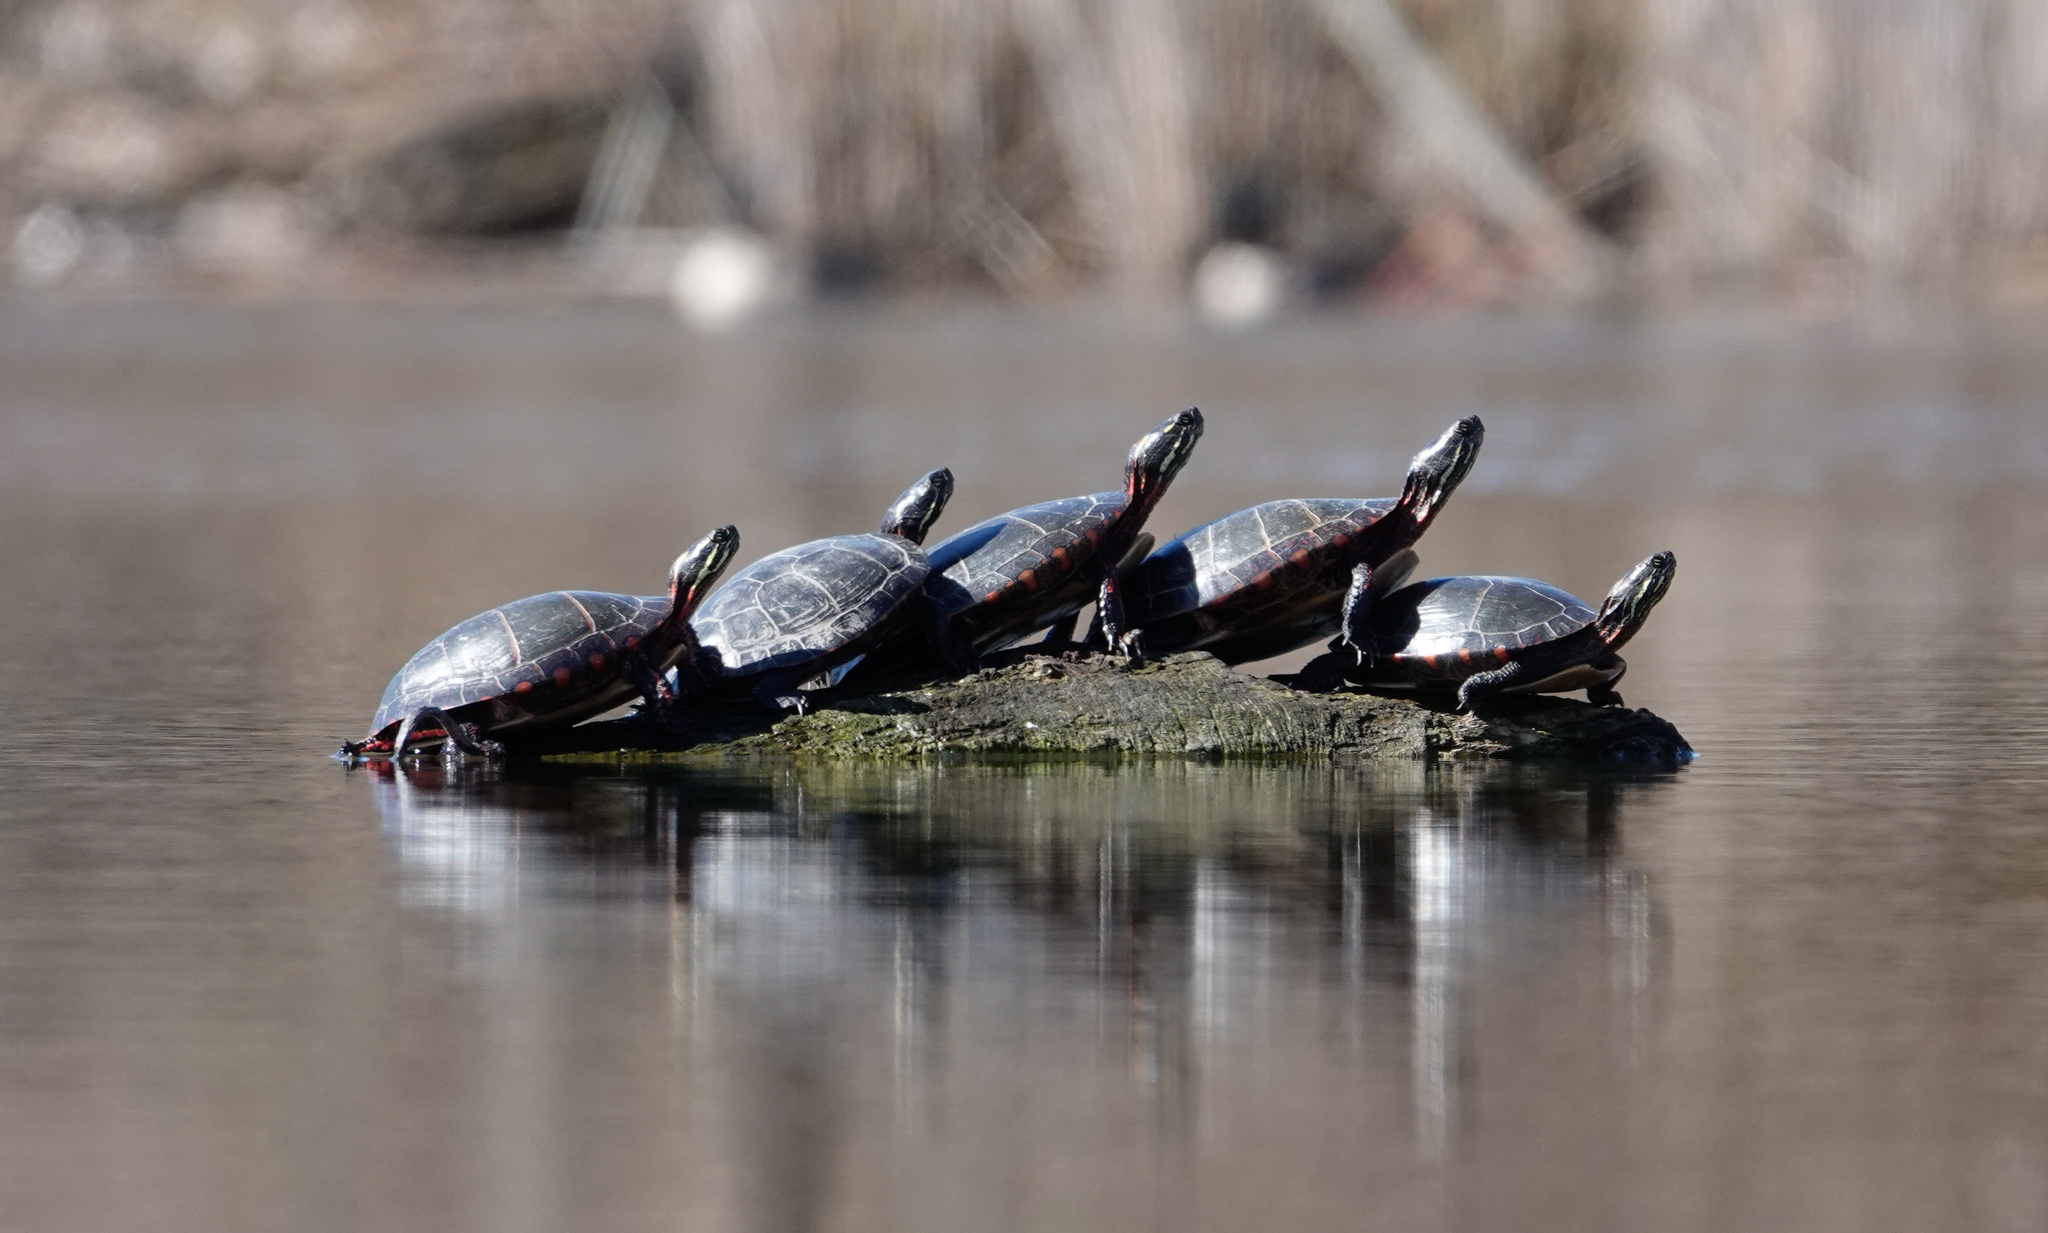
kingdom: Animalia
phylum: Chordata
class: Testudines
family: Emydidae
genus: Chrysemys
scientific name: Chrysemys picta
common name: Painted turtle
